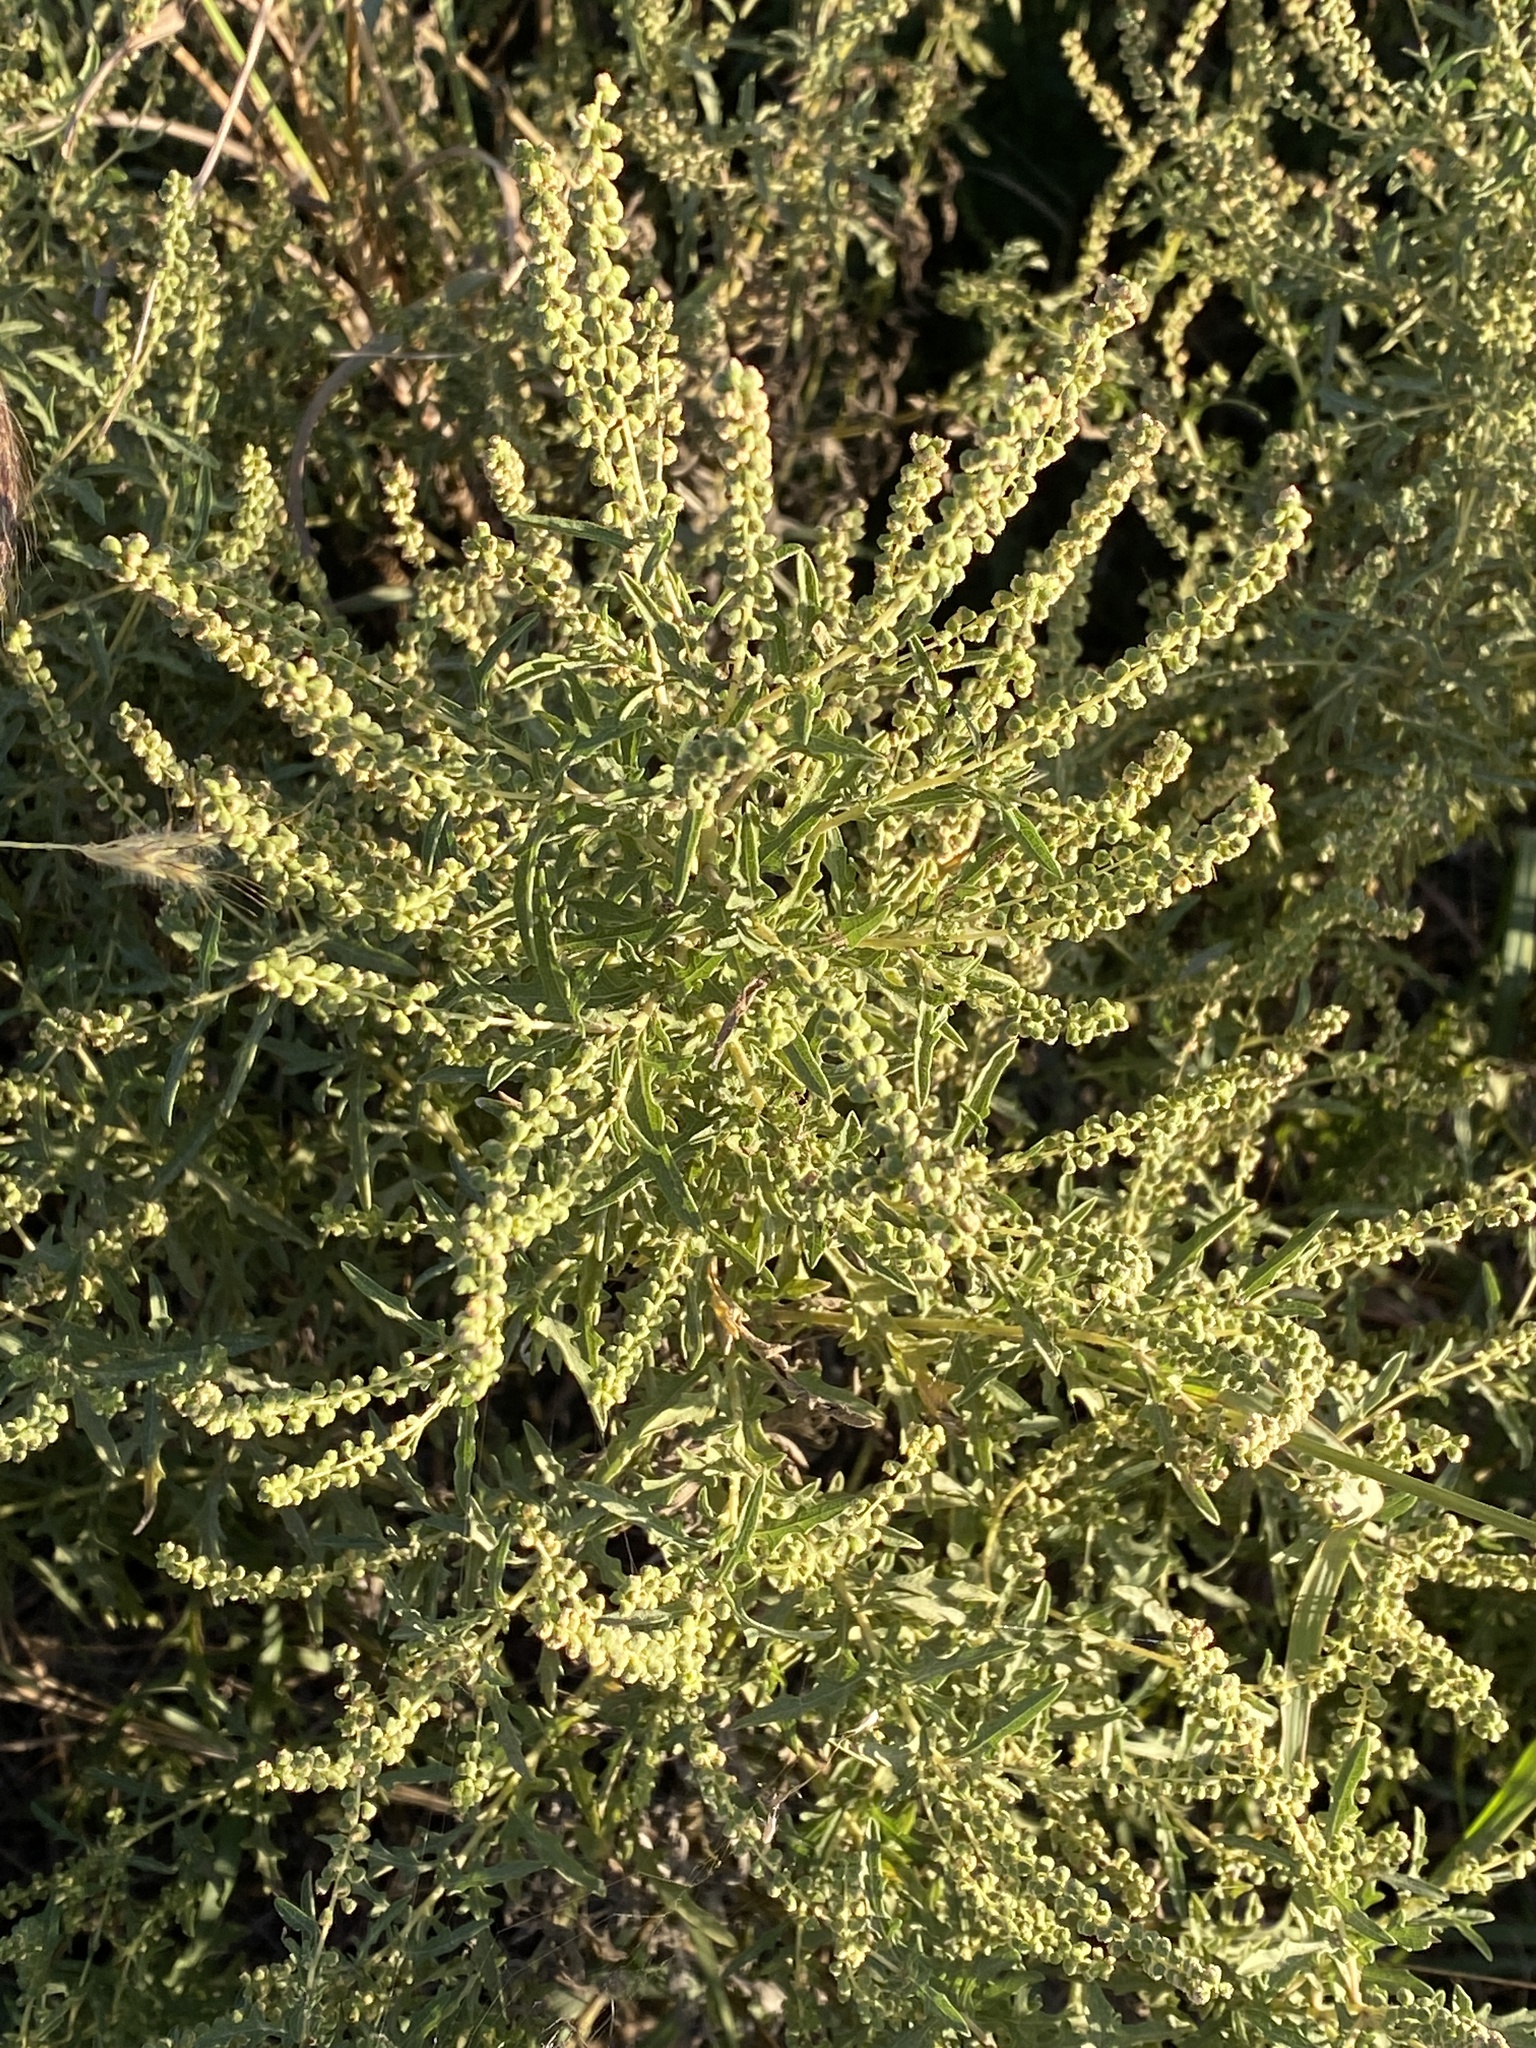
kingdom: Plantae
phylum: Tracheophyta
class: Magnoliopsida
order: Asterales
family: Asteraceae
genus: Ambrosia
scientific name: Ambrosia psilostachya
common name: Perennial ragweed
